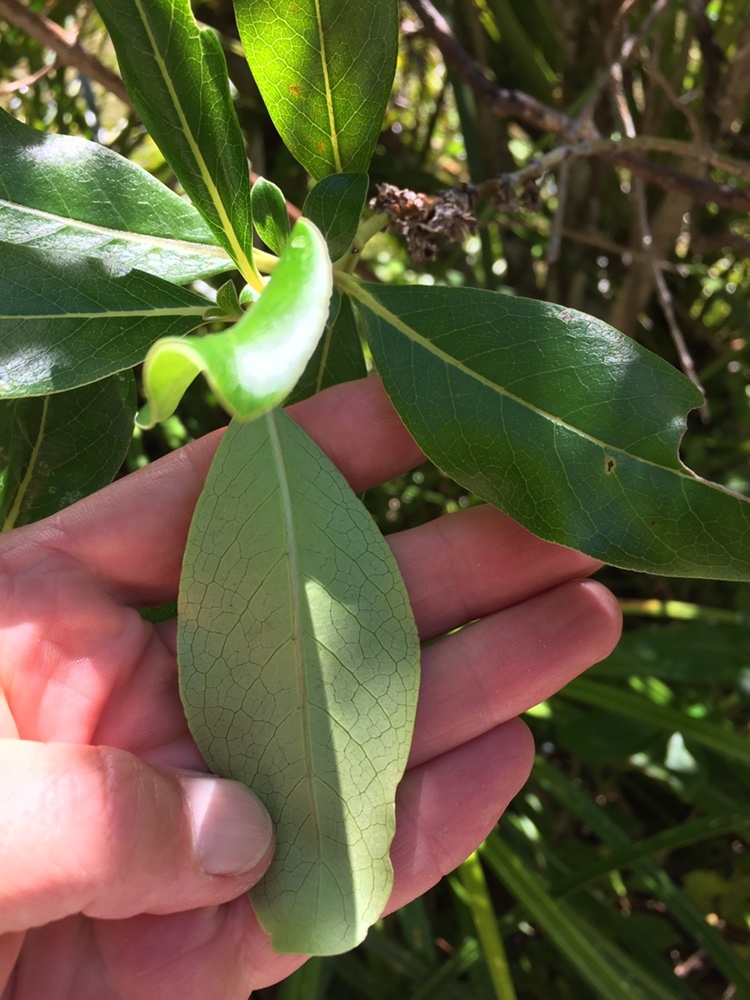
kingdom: Plantae
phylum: Tracheophyta
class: Magnoliopsida
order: Gentianales
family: Rubiaceae
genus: Coprosma
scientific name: Coprosma robusta
